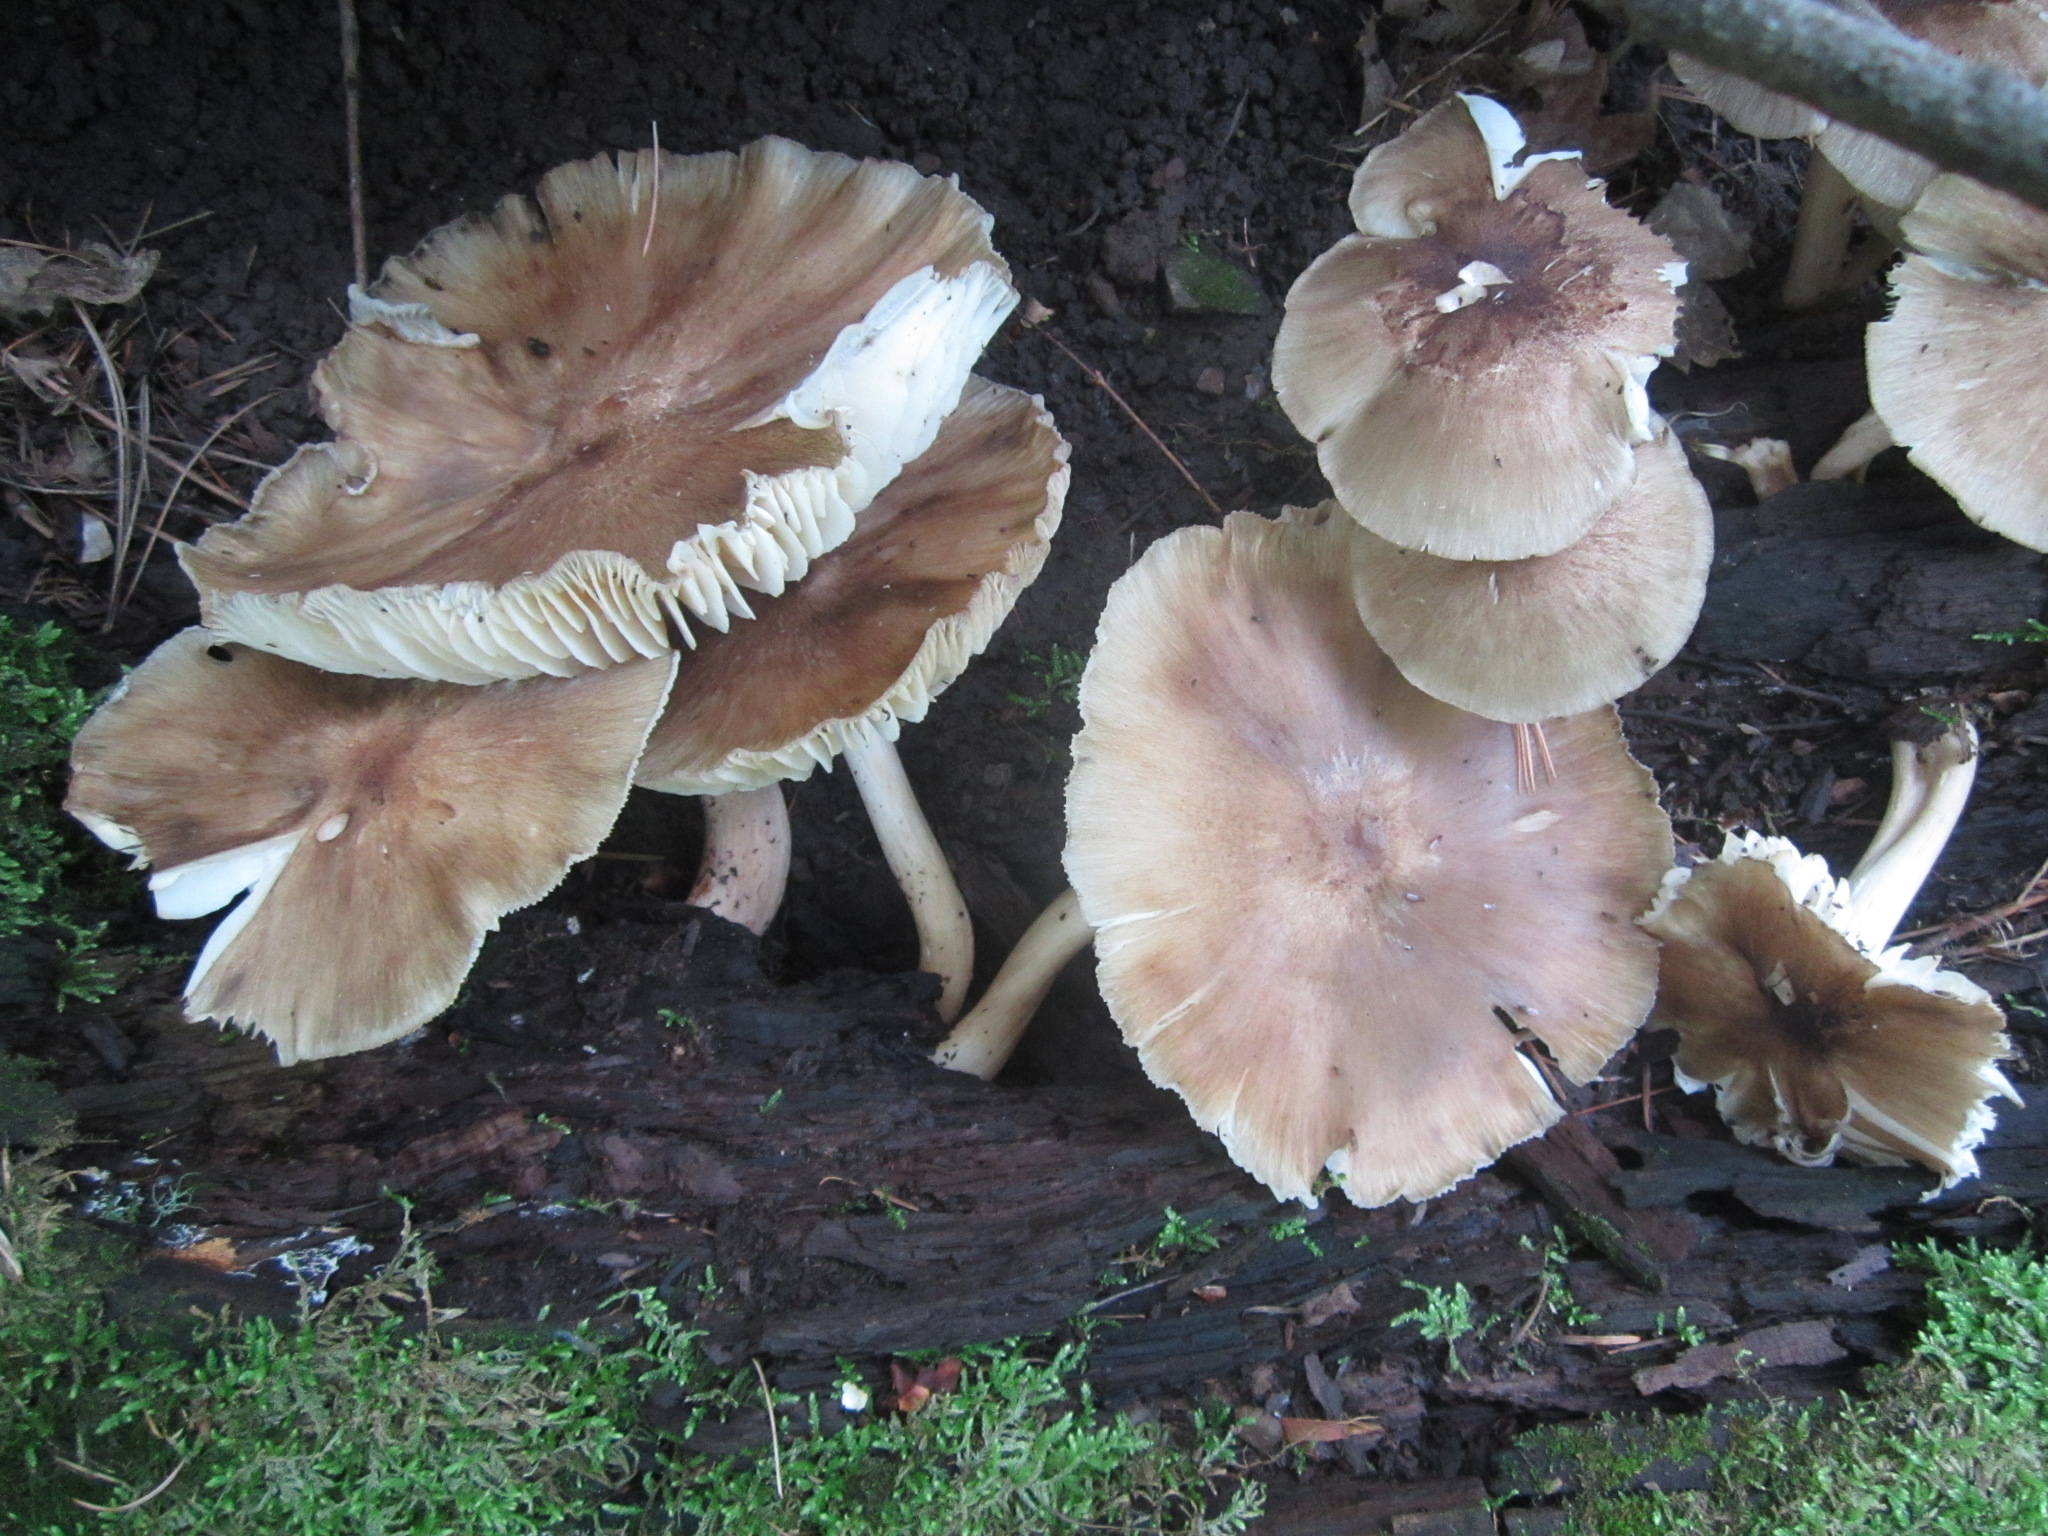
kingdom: Fungi
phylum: Basidiomycota
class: Agaricomycetes
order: Agaricales
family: Tricholomataceae
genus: Megacollybia
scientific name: Megacollybia fallax
